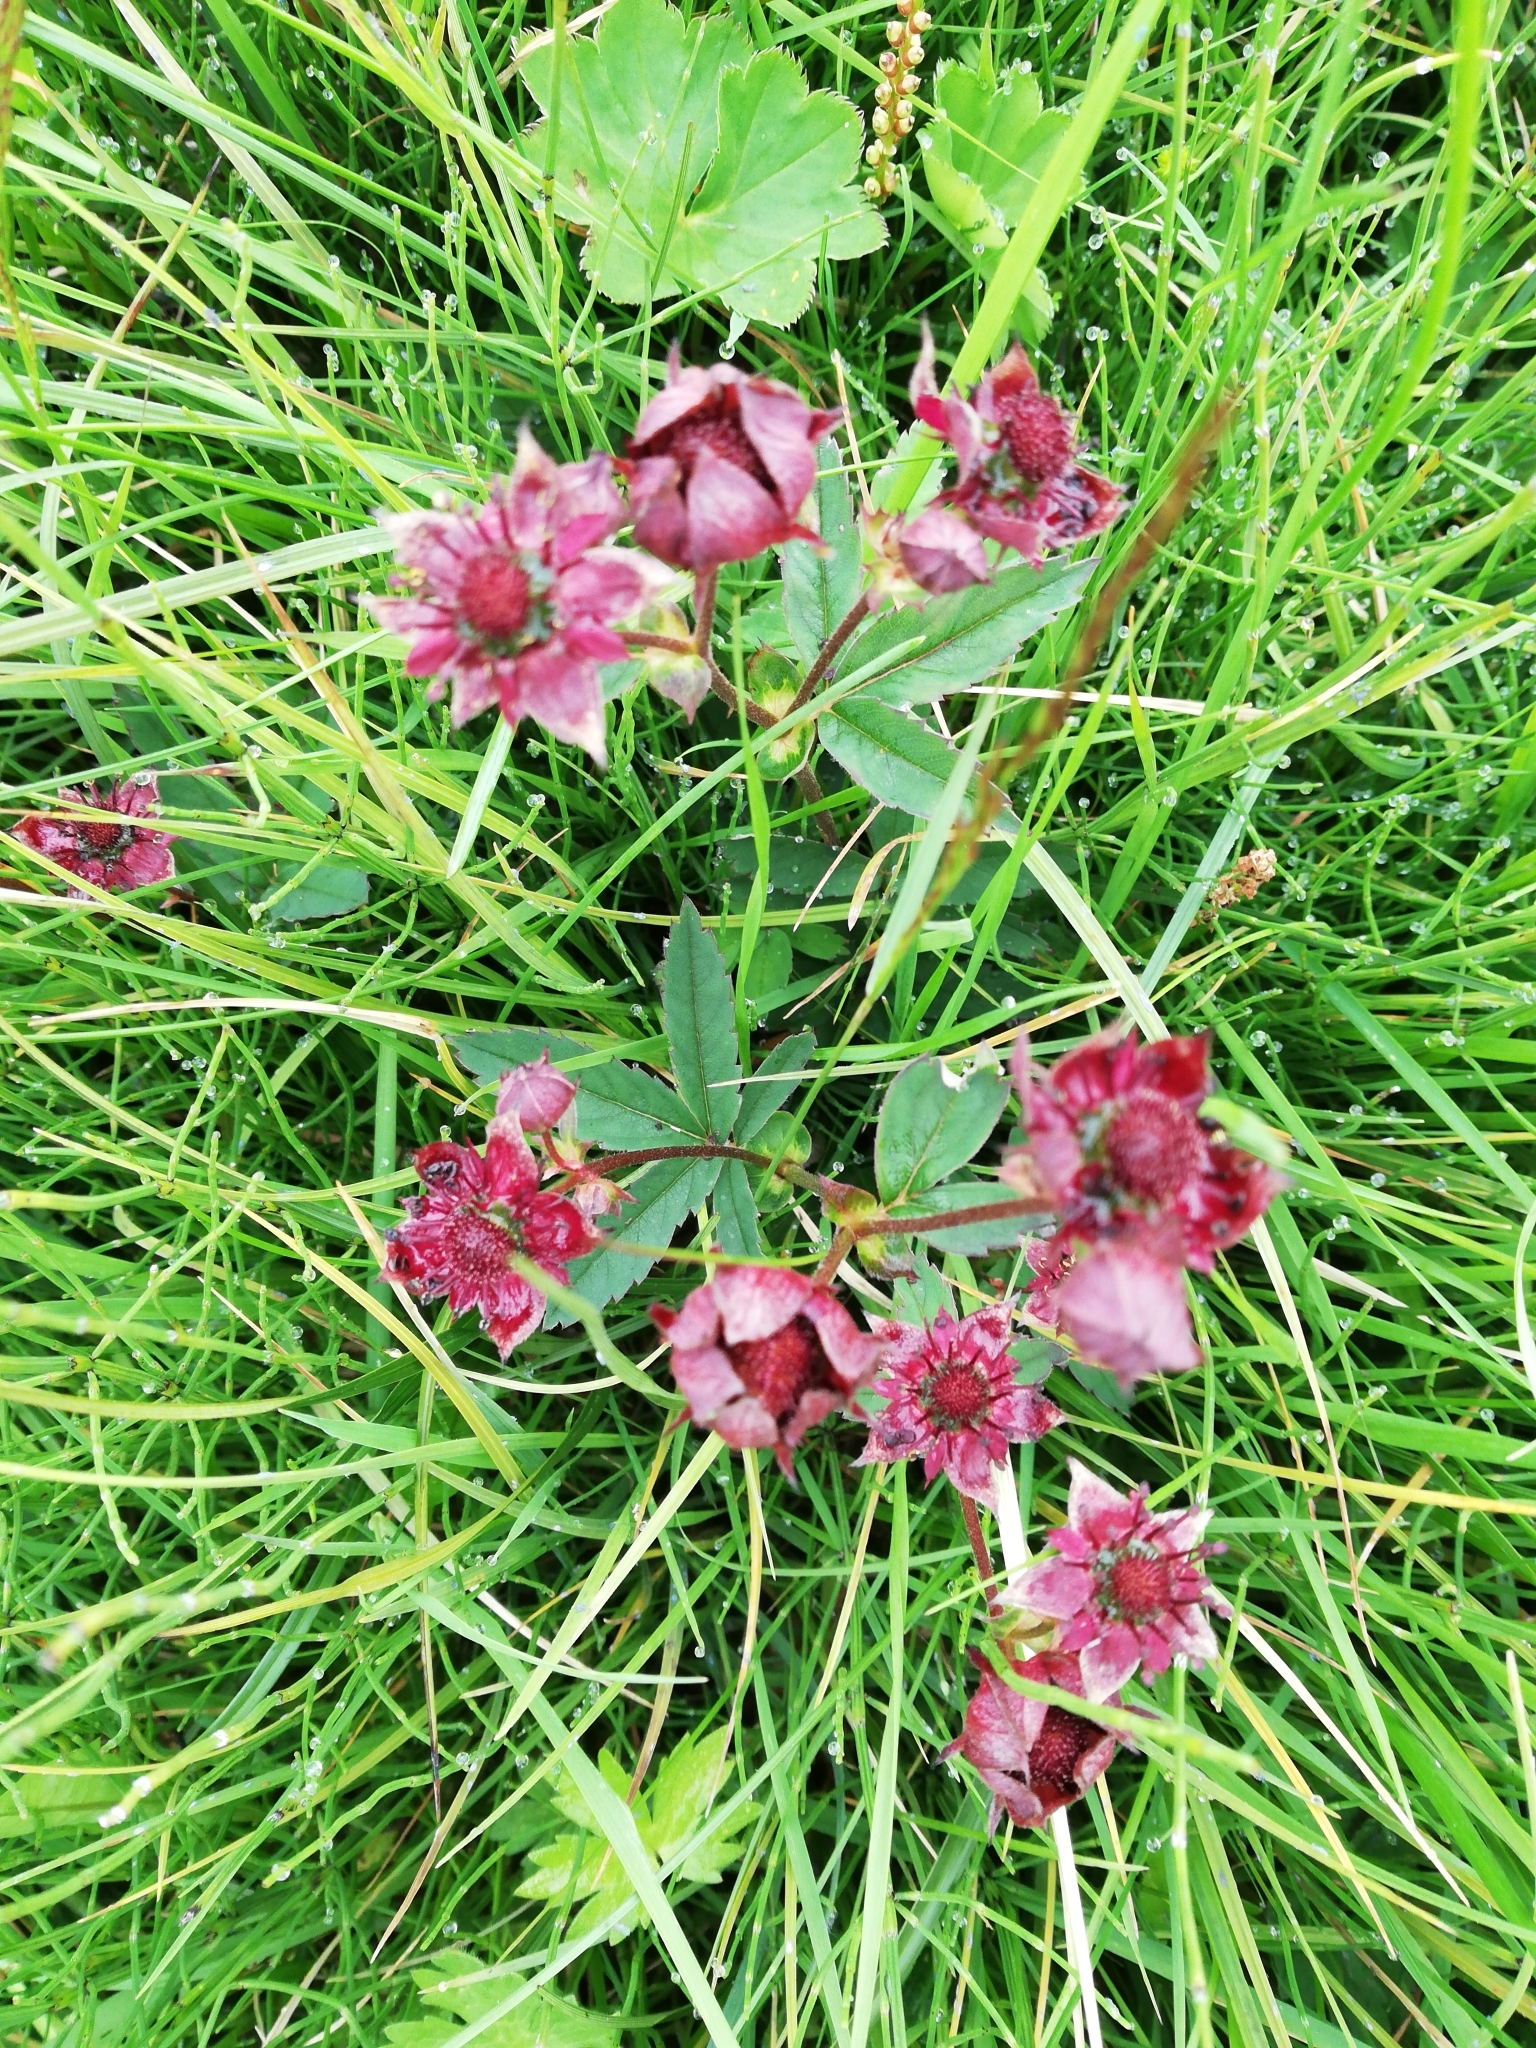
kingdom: Plantae
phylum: Tracheophyta
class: Magnoliopsida
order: Rosales
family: Rosaceae
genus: Comarum
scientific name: Comarum palustre
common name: Marsh cinquefoil
